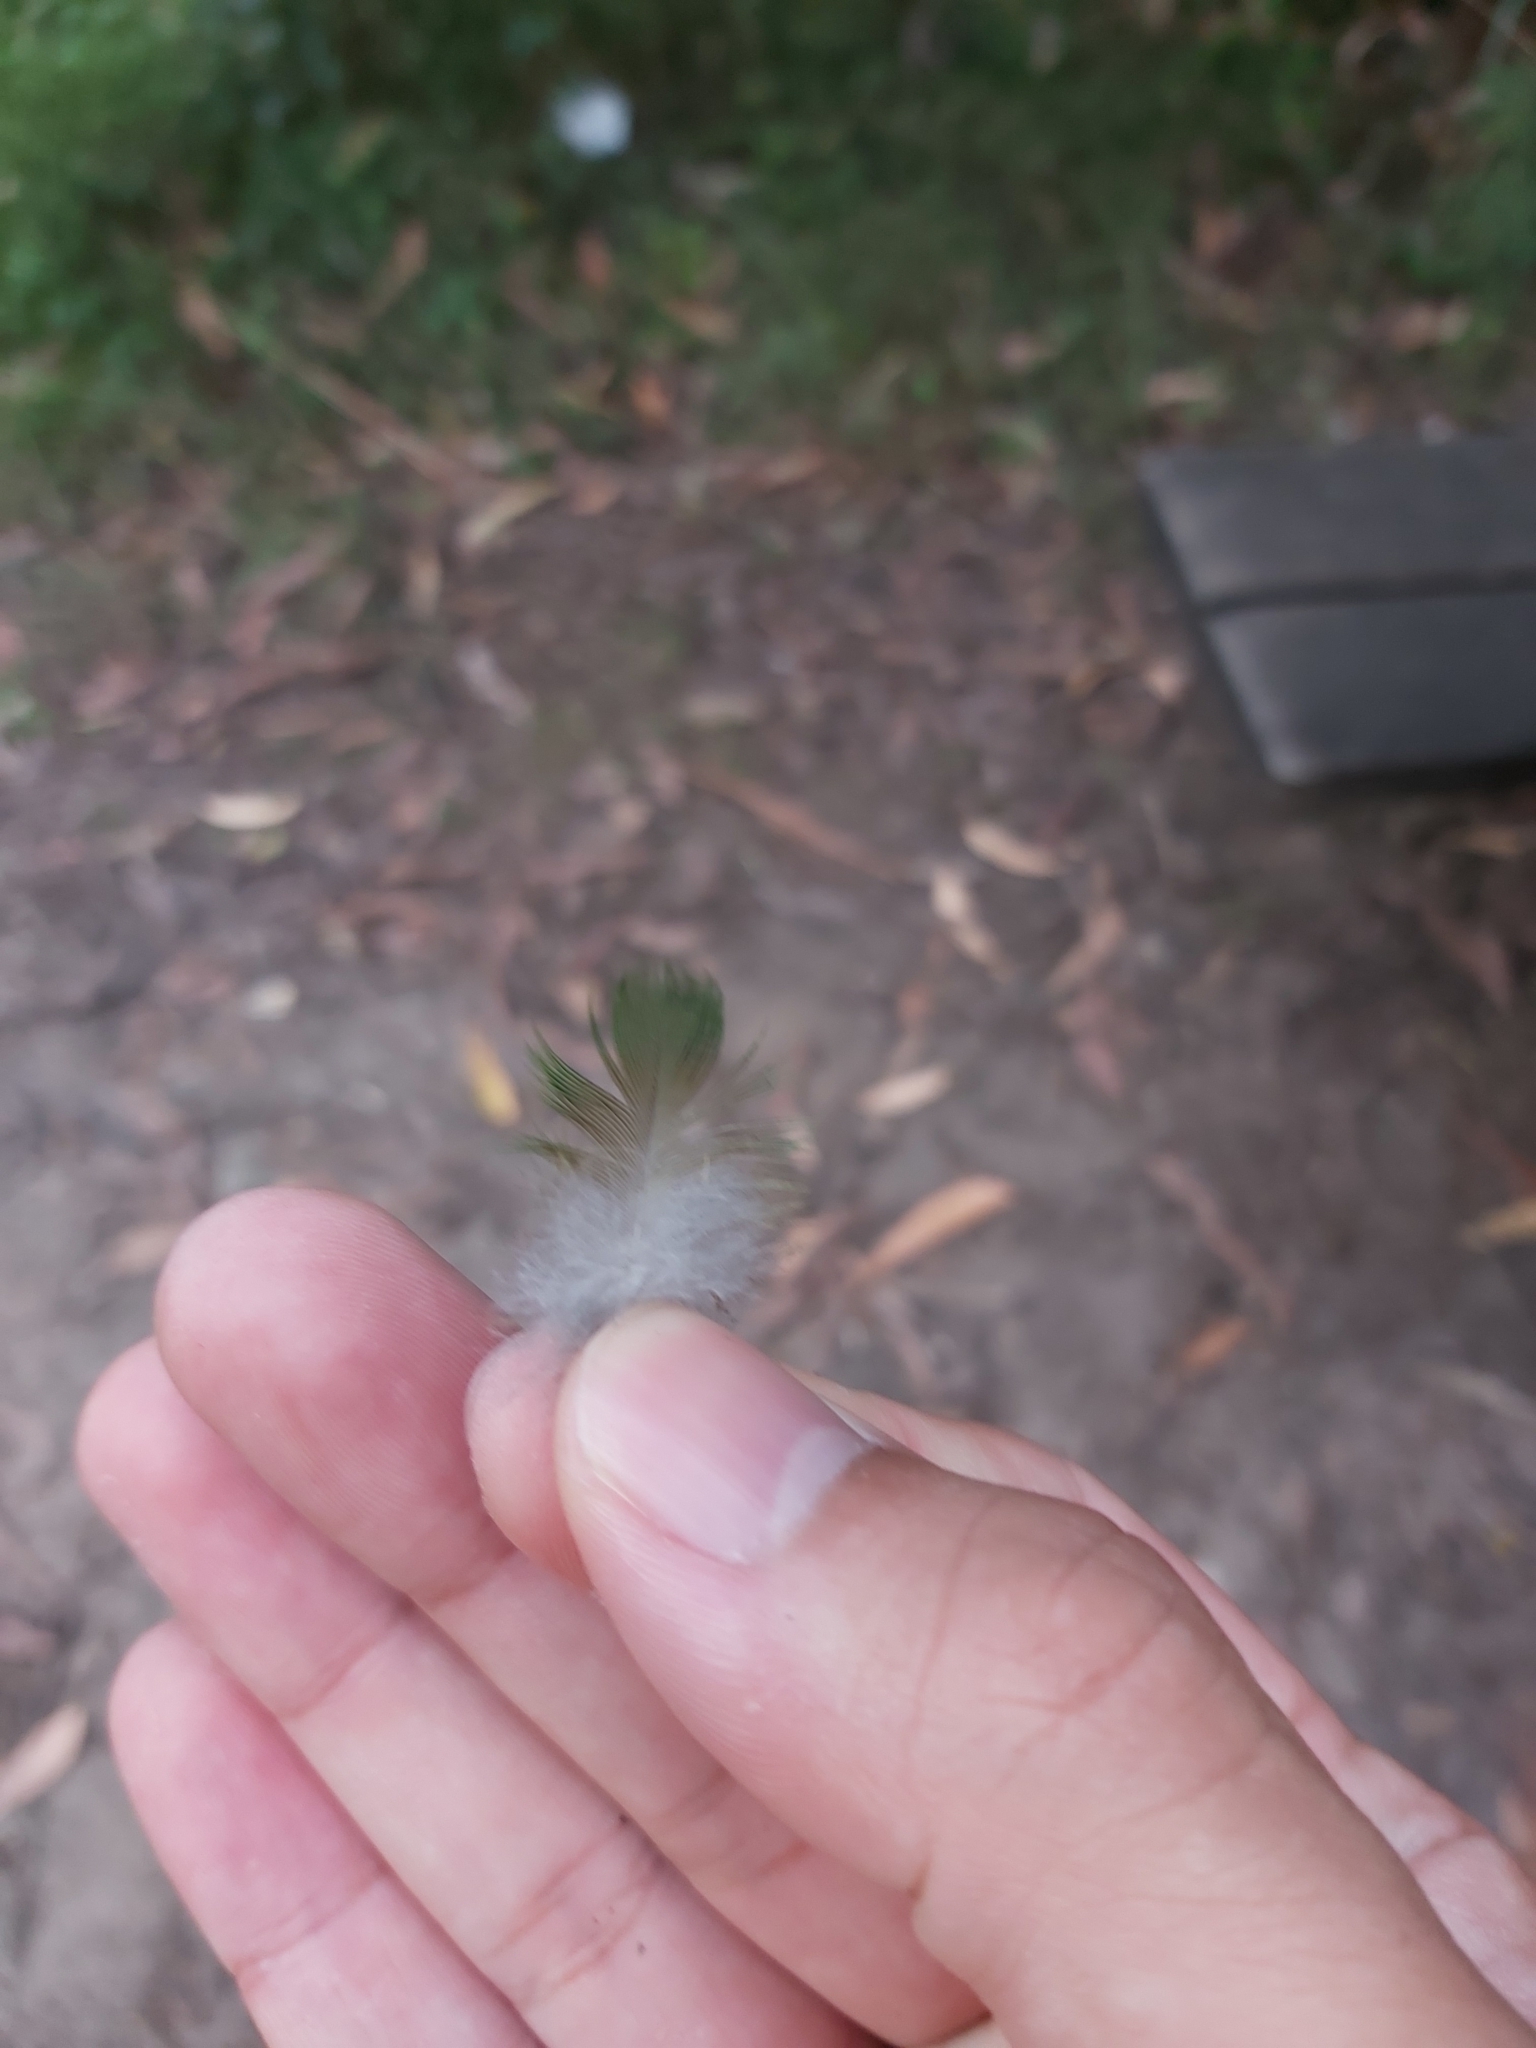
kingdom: Animalia
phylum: Chordata
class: Aves
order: Psittaciformes
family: Psittacidae
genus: Trichoglossus
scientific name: Trichoglossus haematodus
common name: Coconut lorikeet
